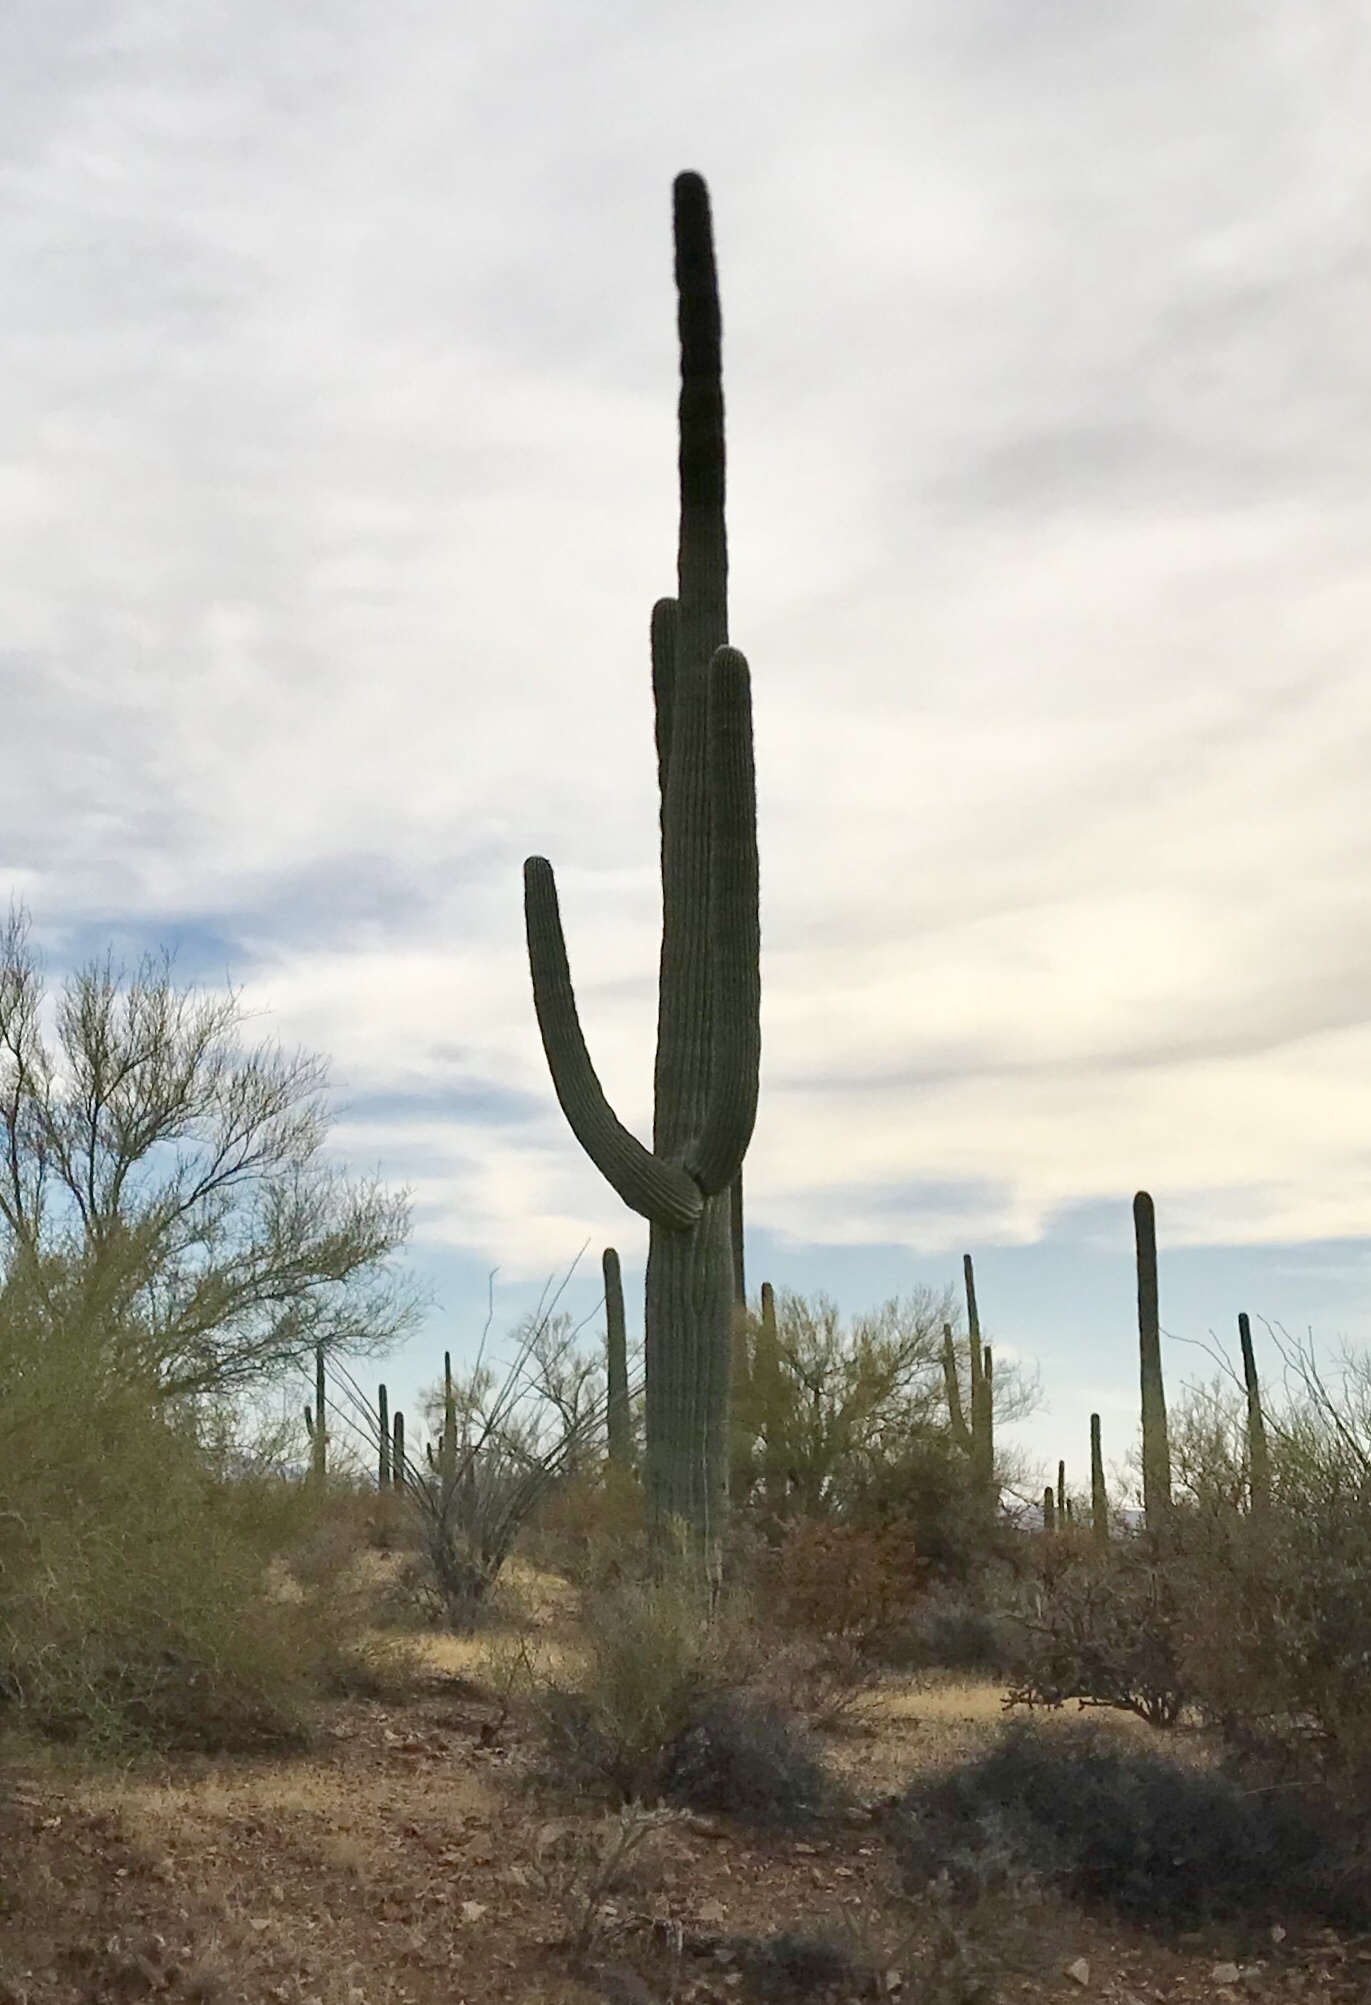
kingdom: Plantae
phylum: Tracheophyta
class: Magnoliopsida
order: Caryophyllales
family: Cactaceae
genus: Carnegiea
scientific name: Carnegiea gigantea
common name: Saguaro
